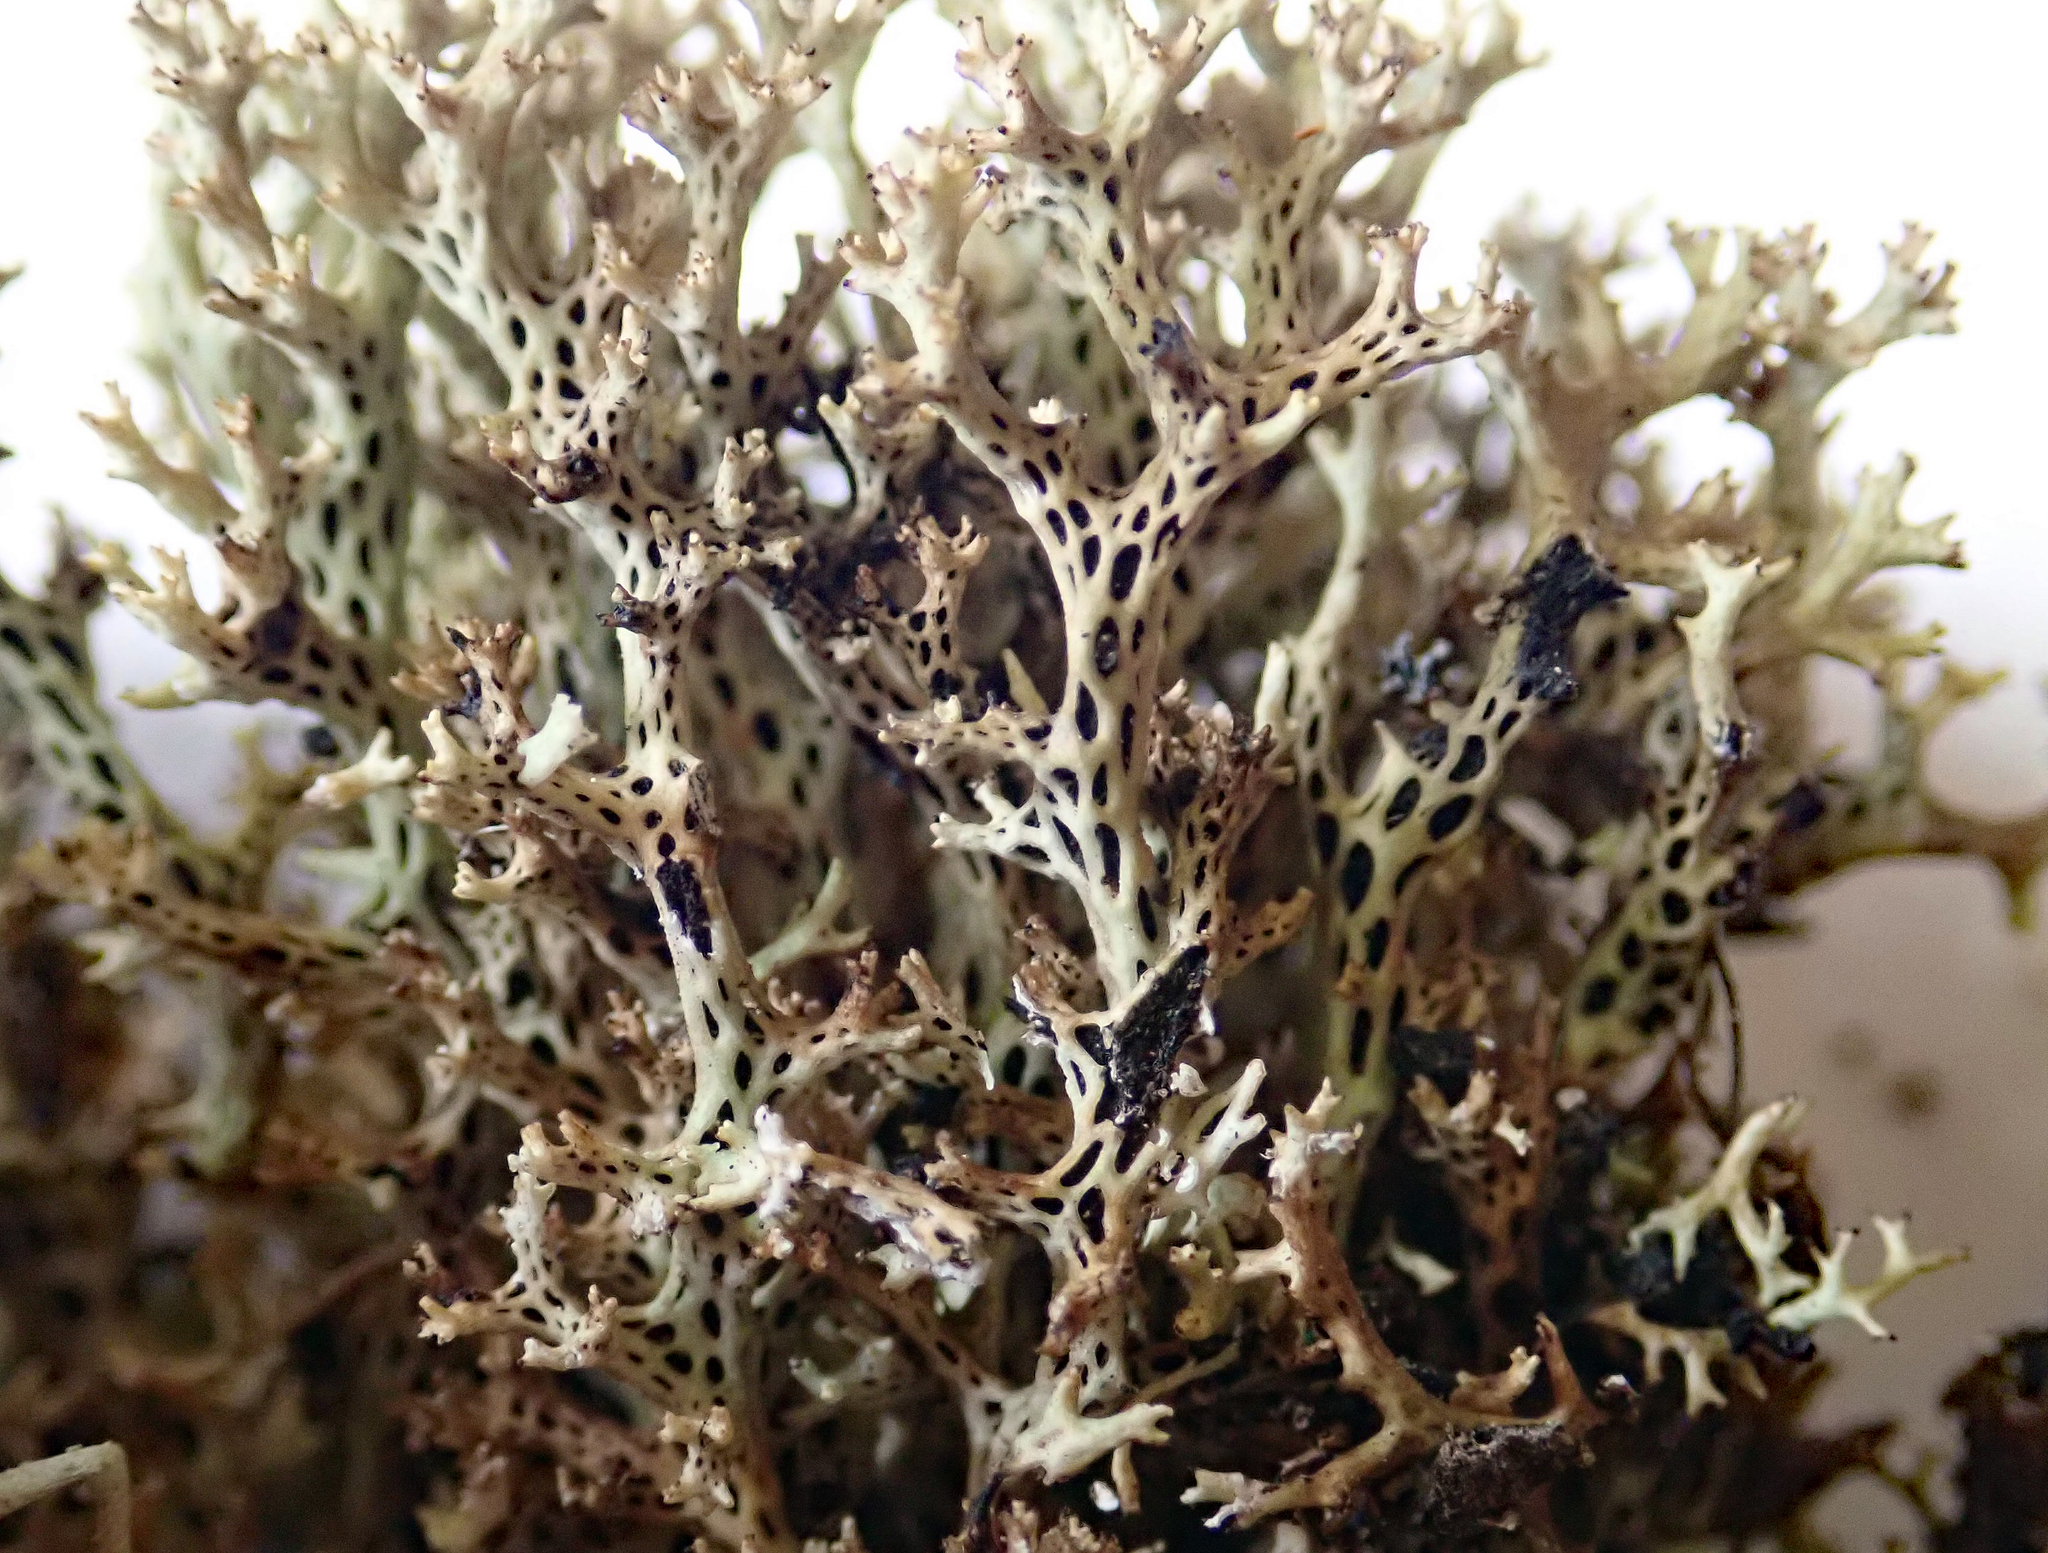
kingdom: Fungi
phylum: Ascomycota
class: Lecanoromycetes
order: Lecanorales
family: Cladoniaceae
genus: Rexiella
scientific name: Rexiella sullivanii
